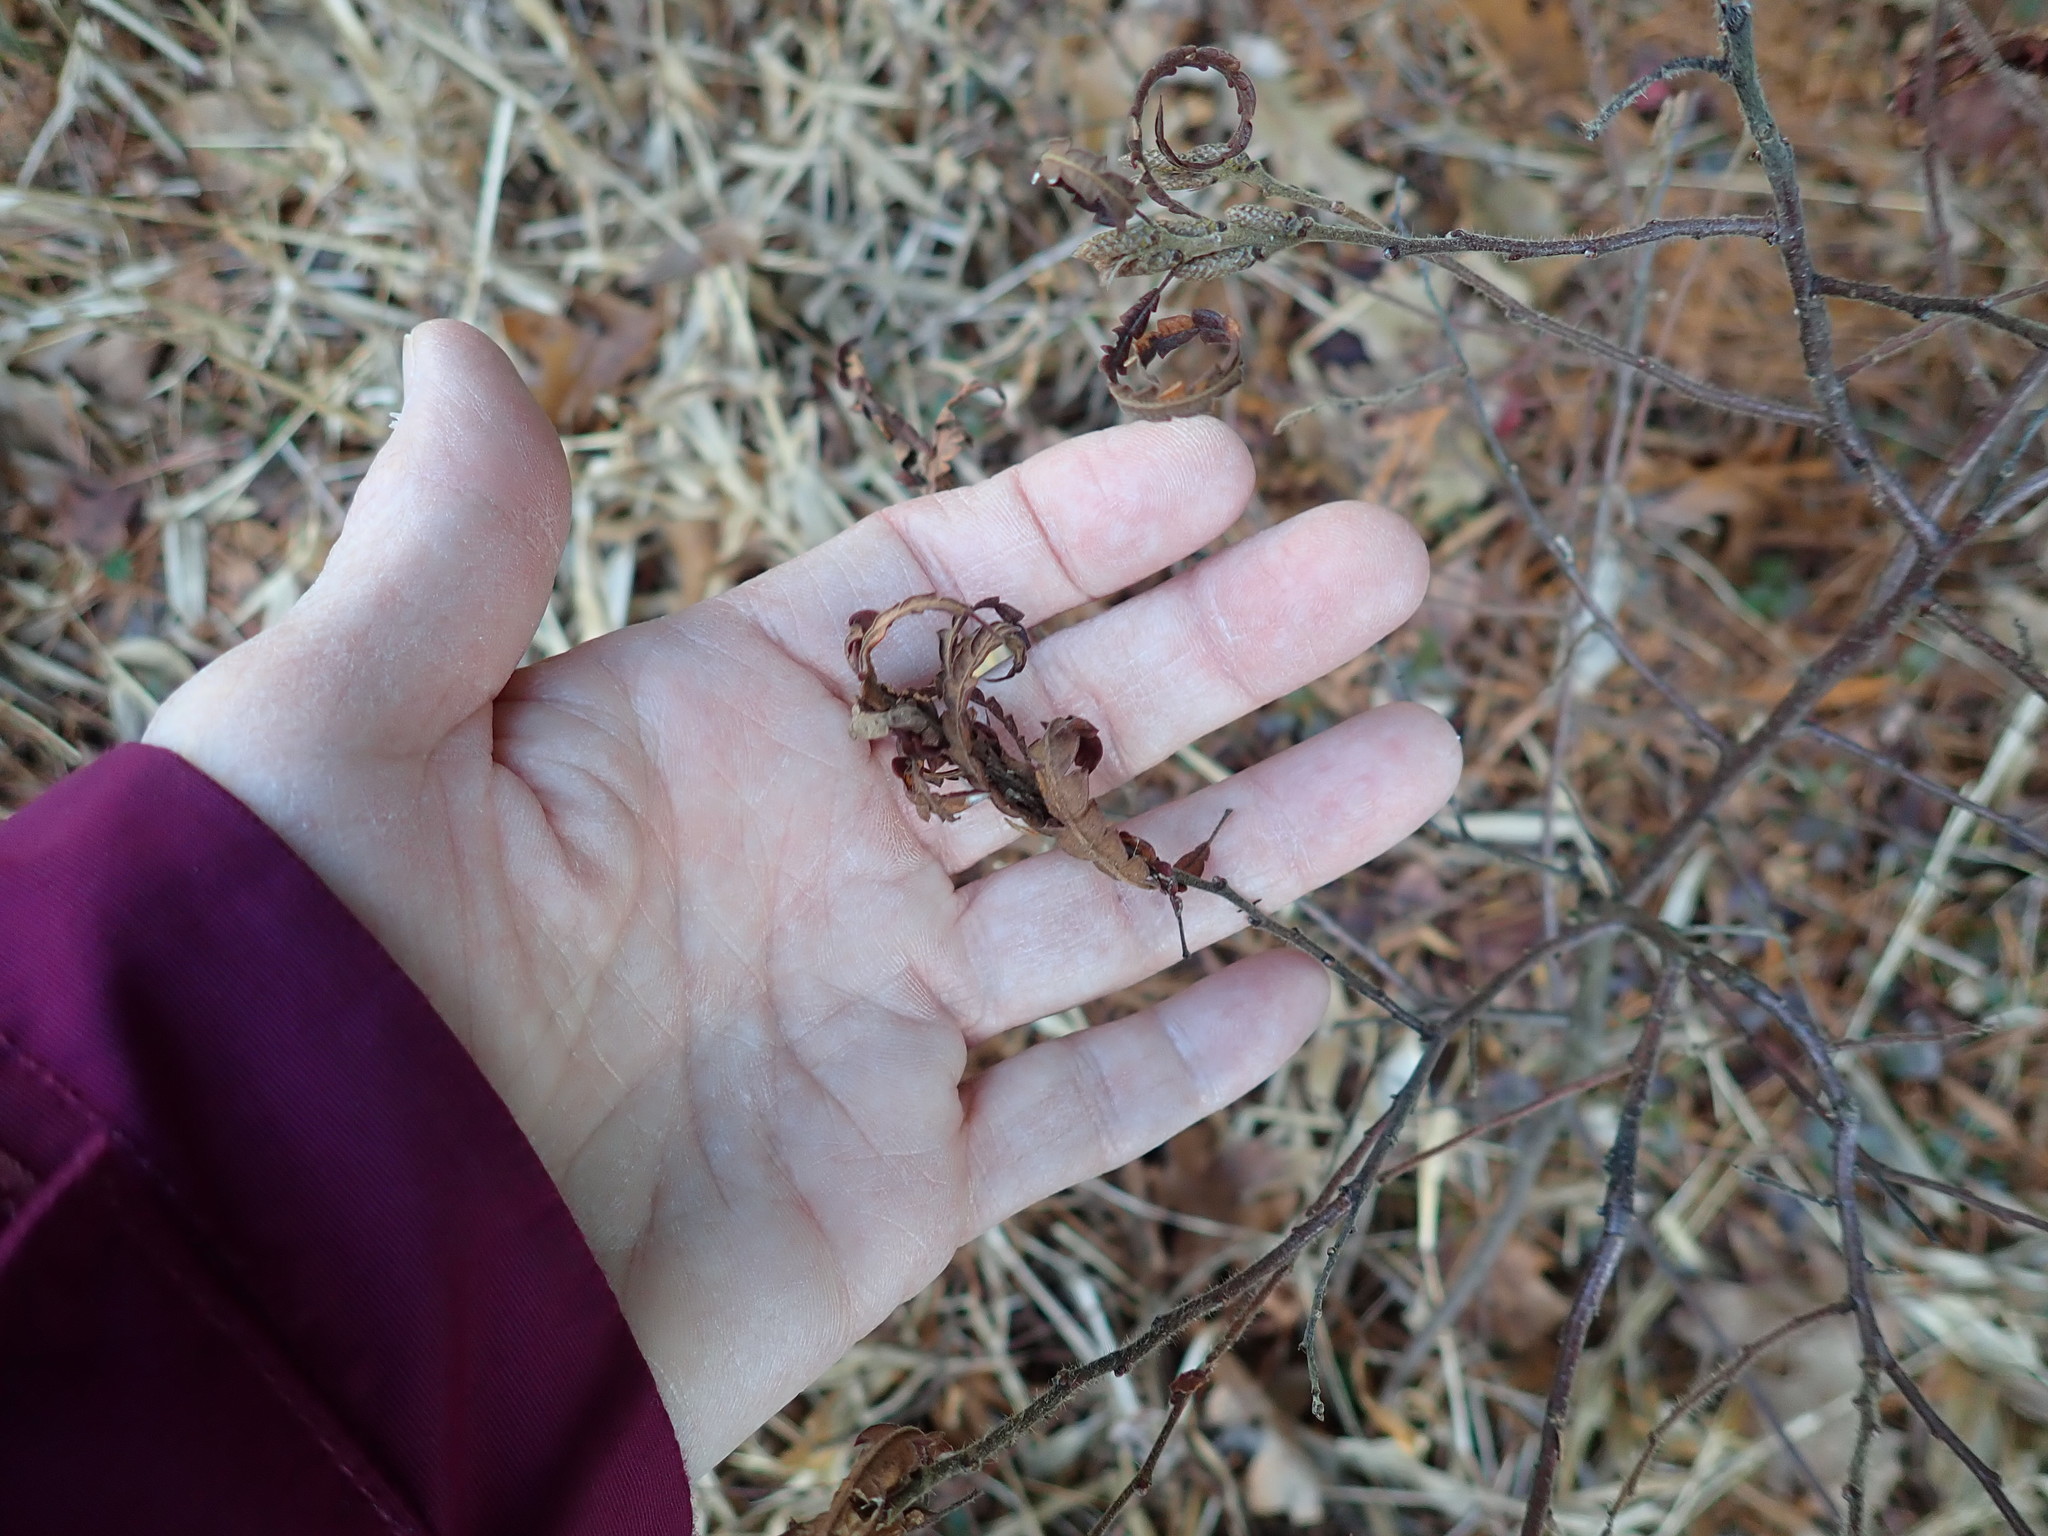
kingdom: Plantae
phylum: Tracheophyta
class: Magnoliopsida
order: Fagales
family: Myricaceae
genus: Comptonia
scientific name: Comptonia peregrina
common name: Sweet-fern
